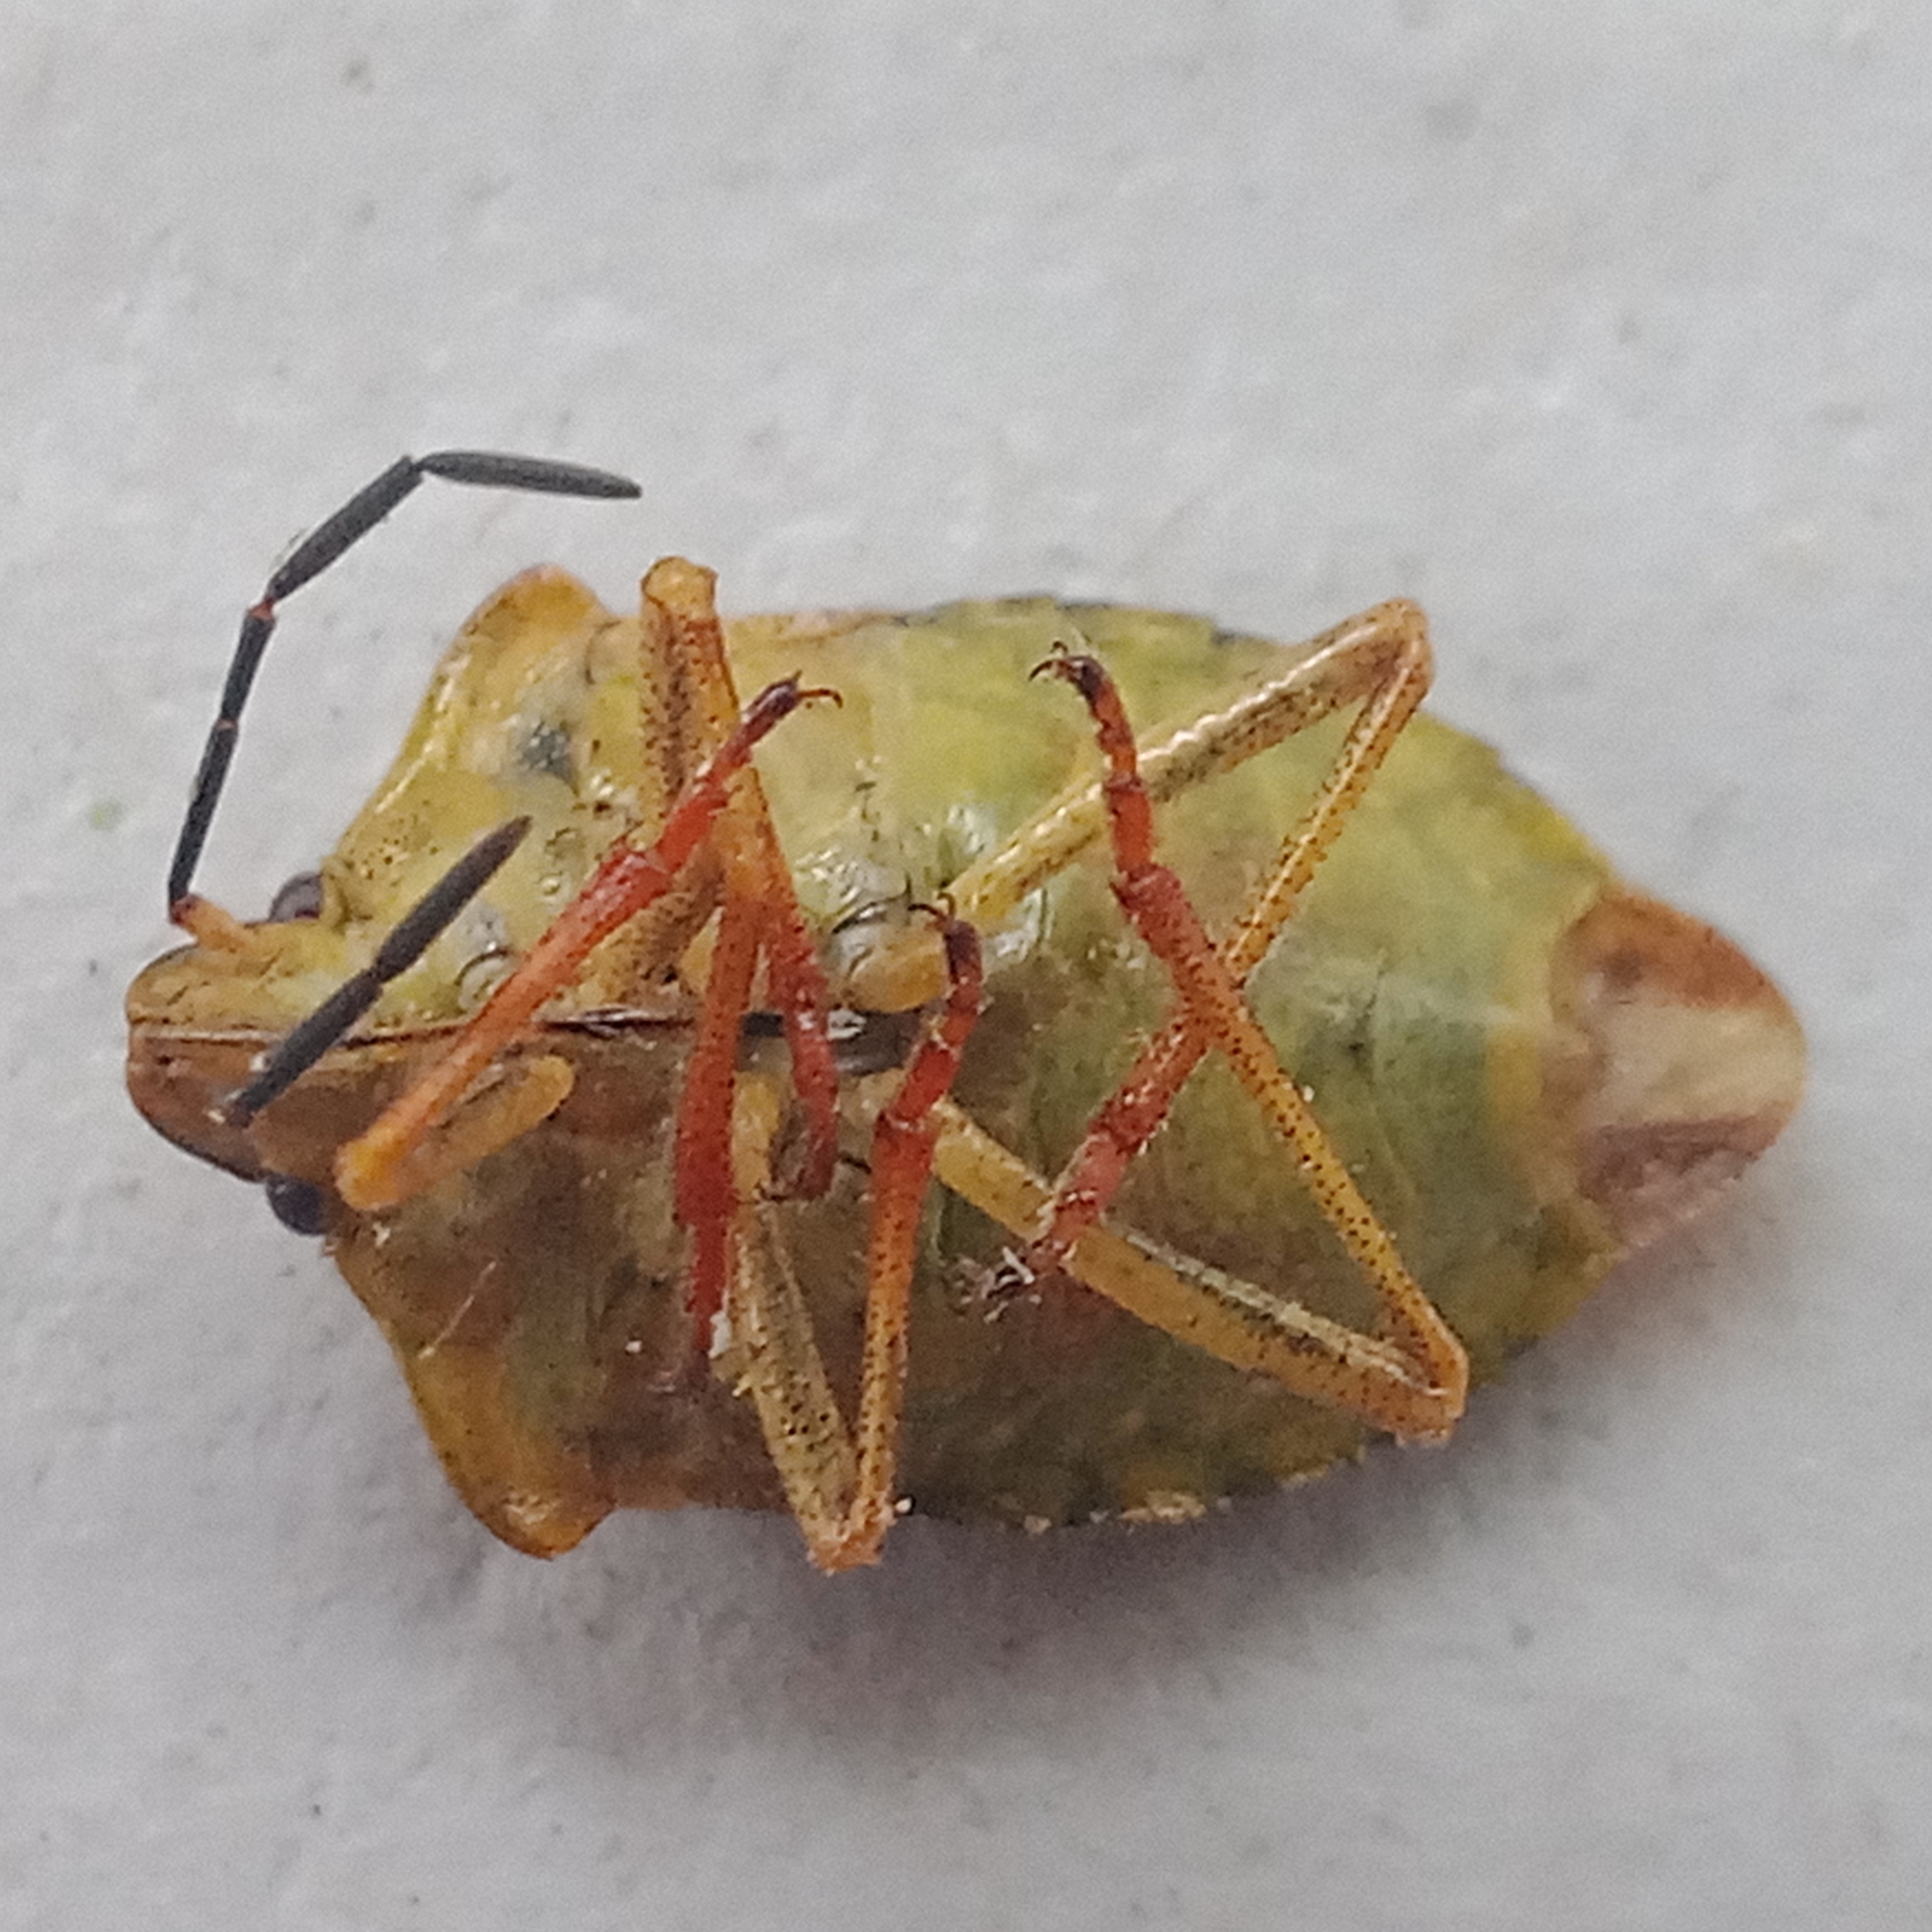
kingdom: Animalia
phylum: Arthropoda
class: Insecta
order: Hemiptera
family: Pentatomidae
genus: Carpocoris
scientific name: Carpocoris purpureipennis
